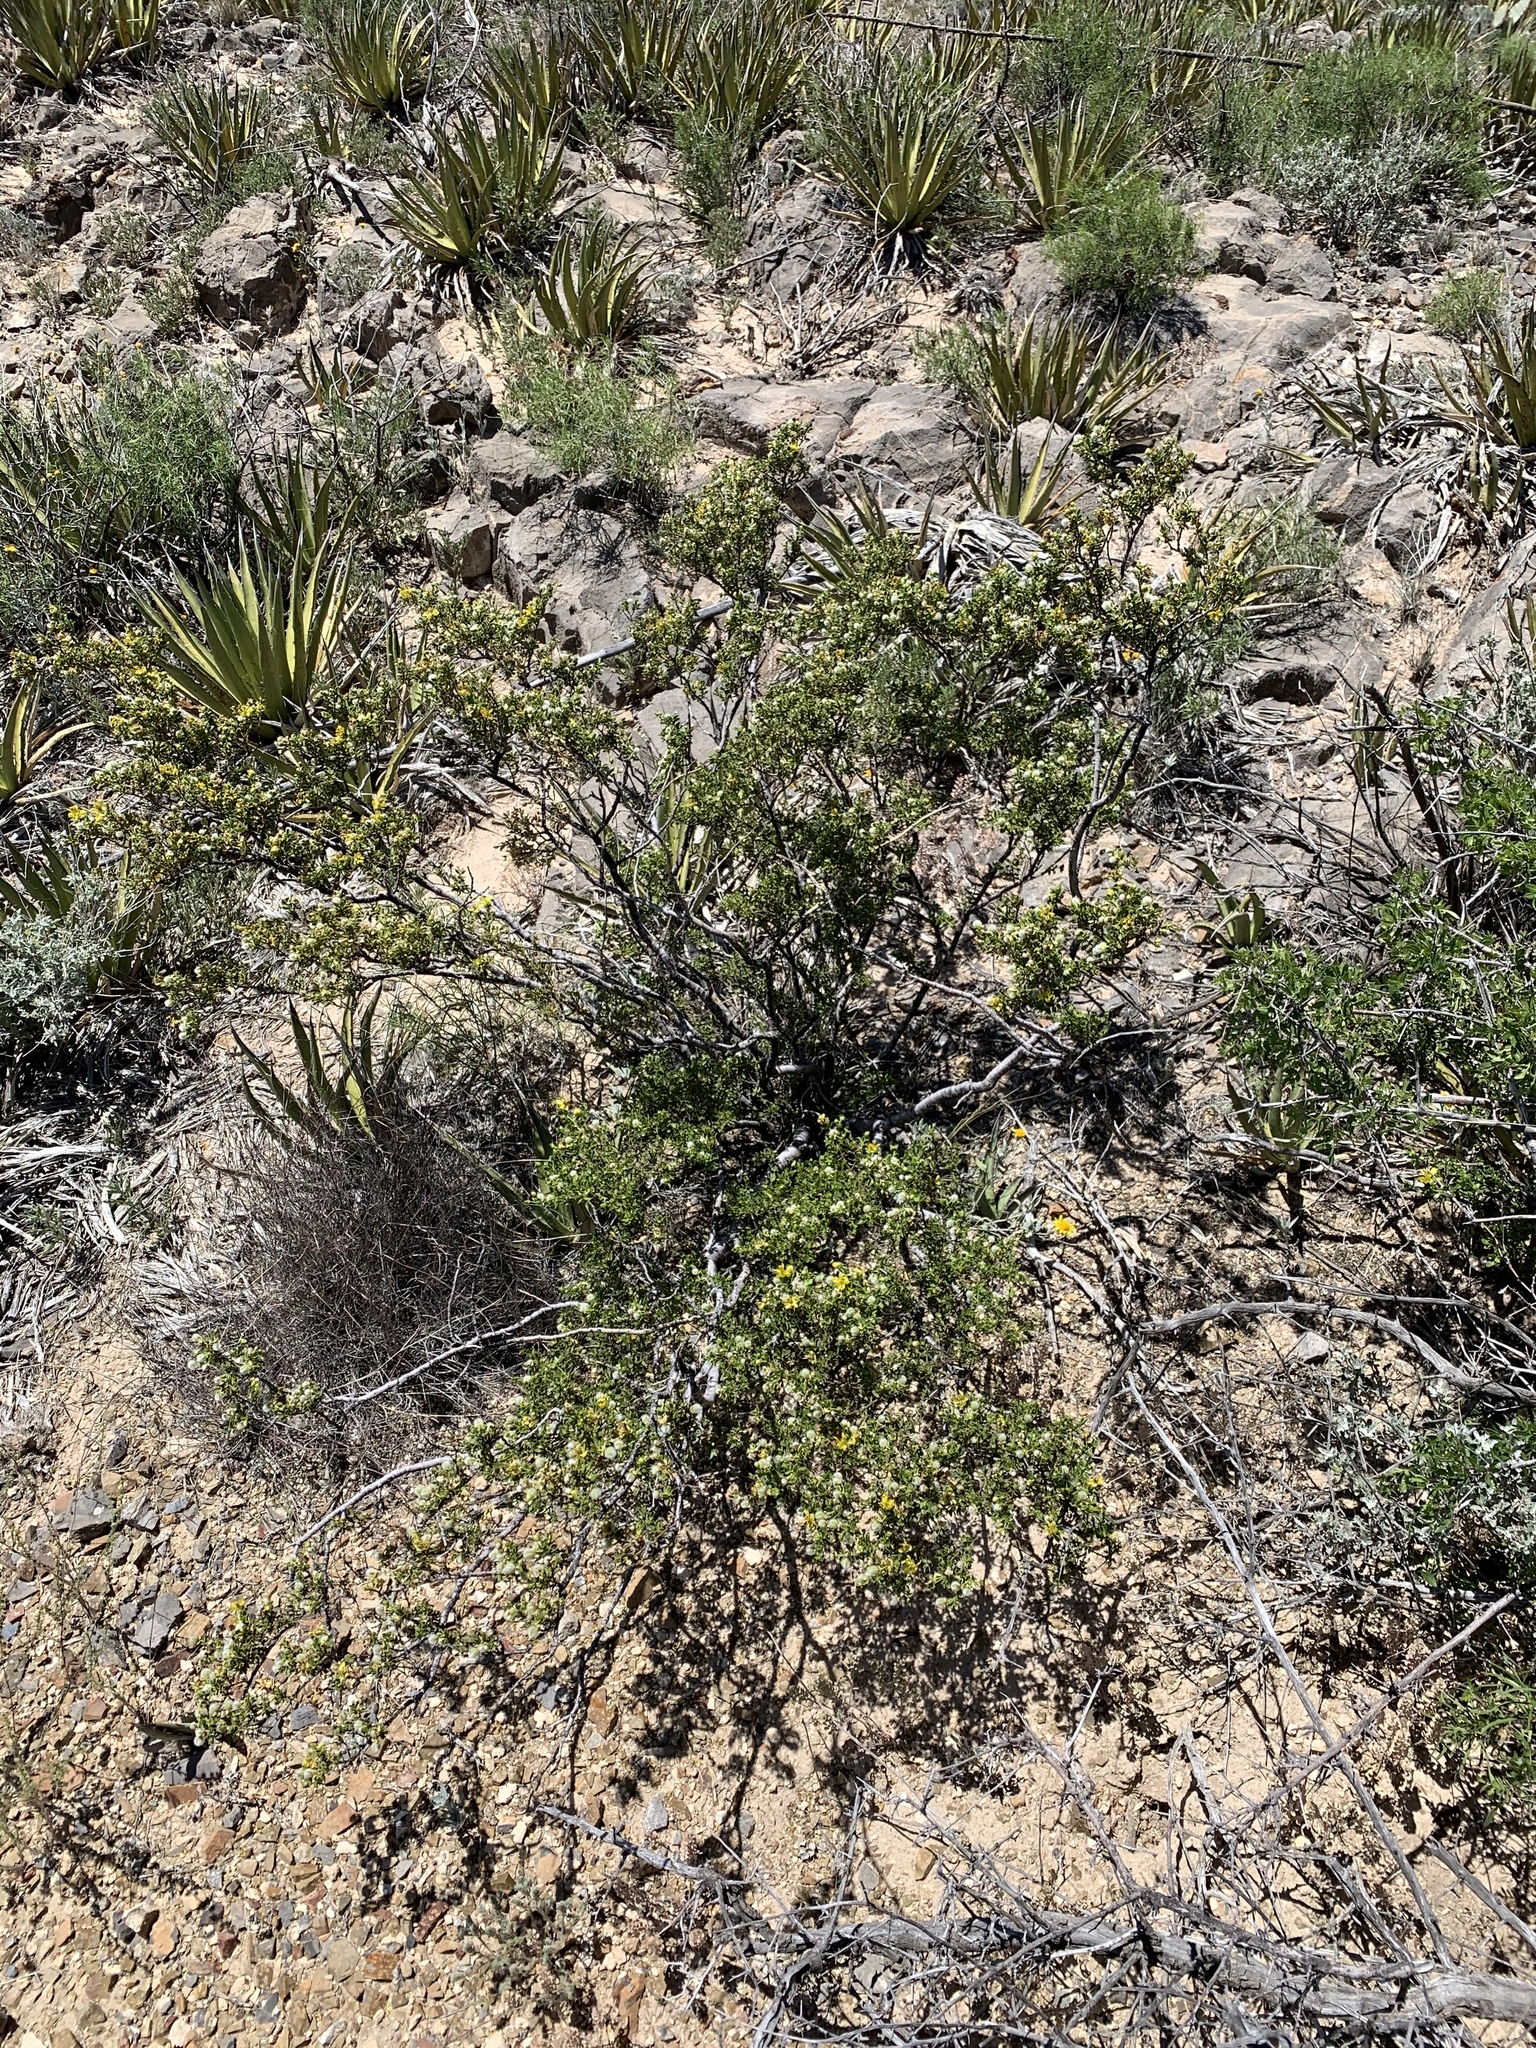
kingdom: Plantae
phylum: Tracheophyta
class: Magnoliopsida
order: Zygophyllales
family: Zygophyllaceae
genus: Larrea
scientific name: Larrea tridentata
